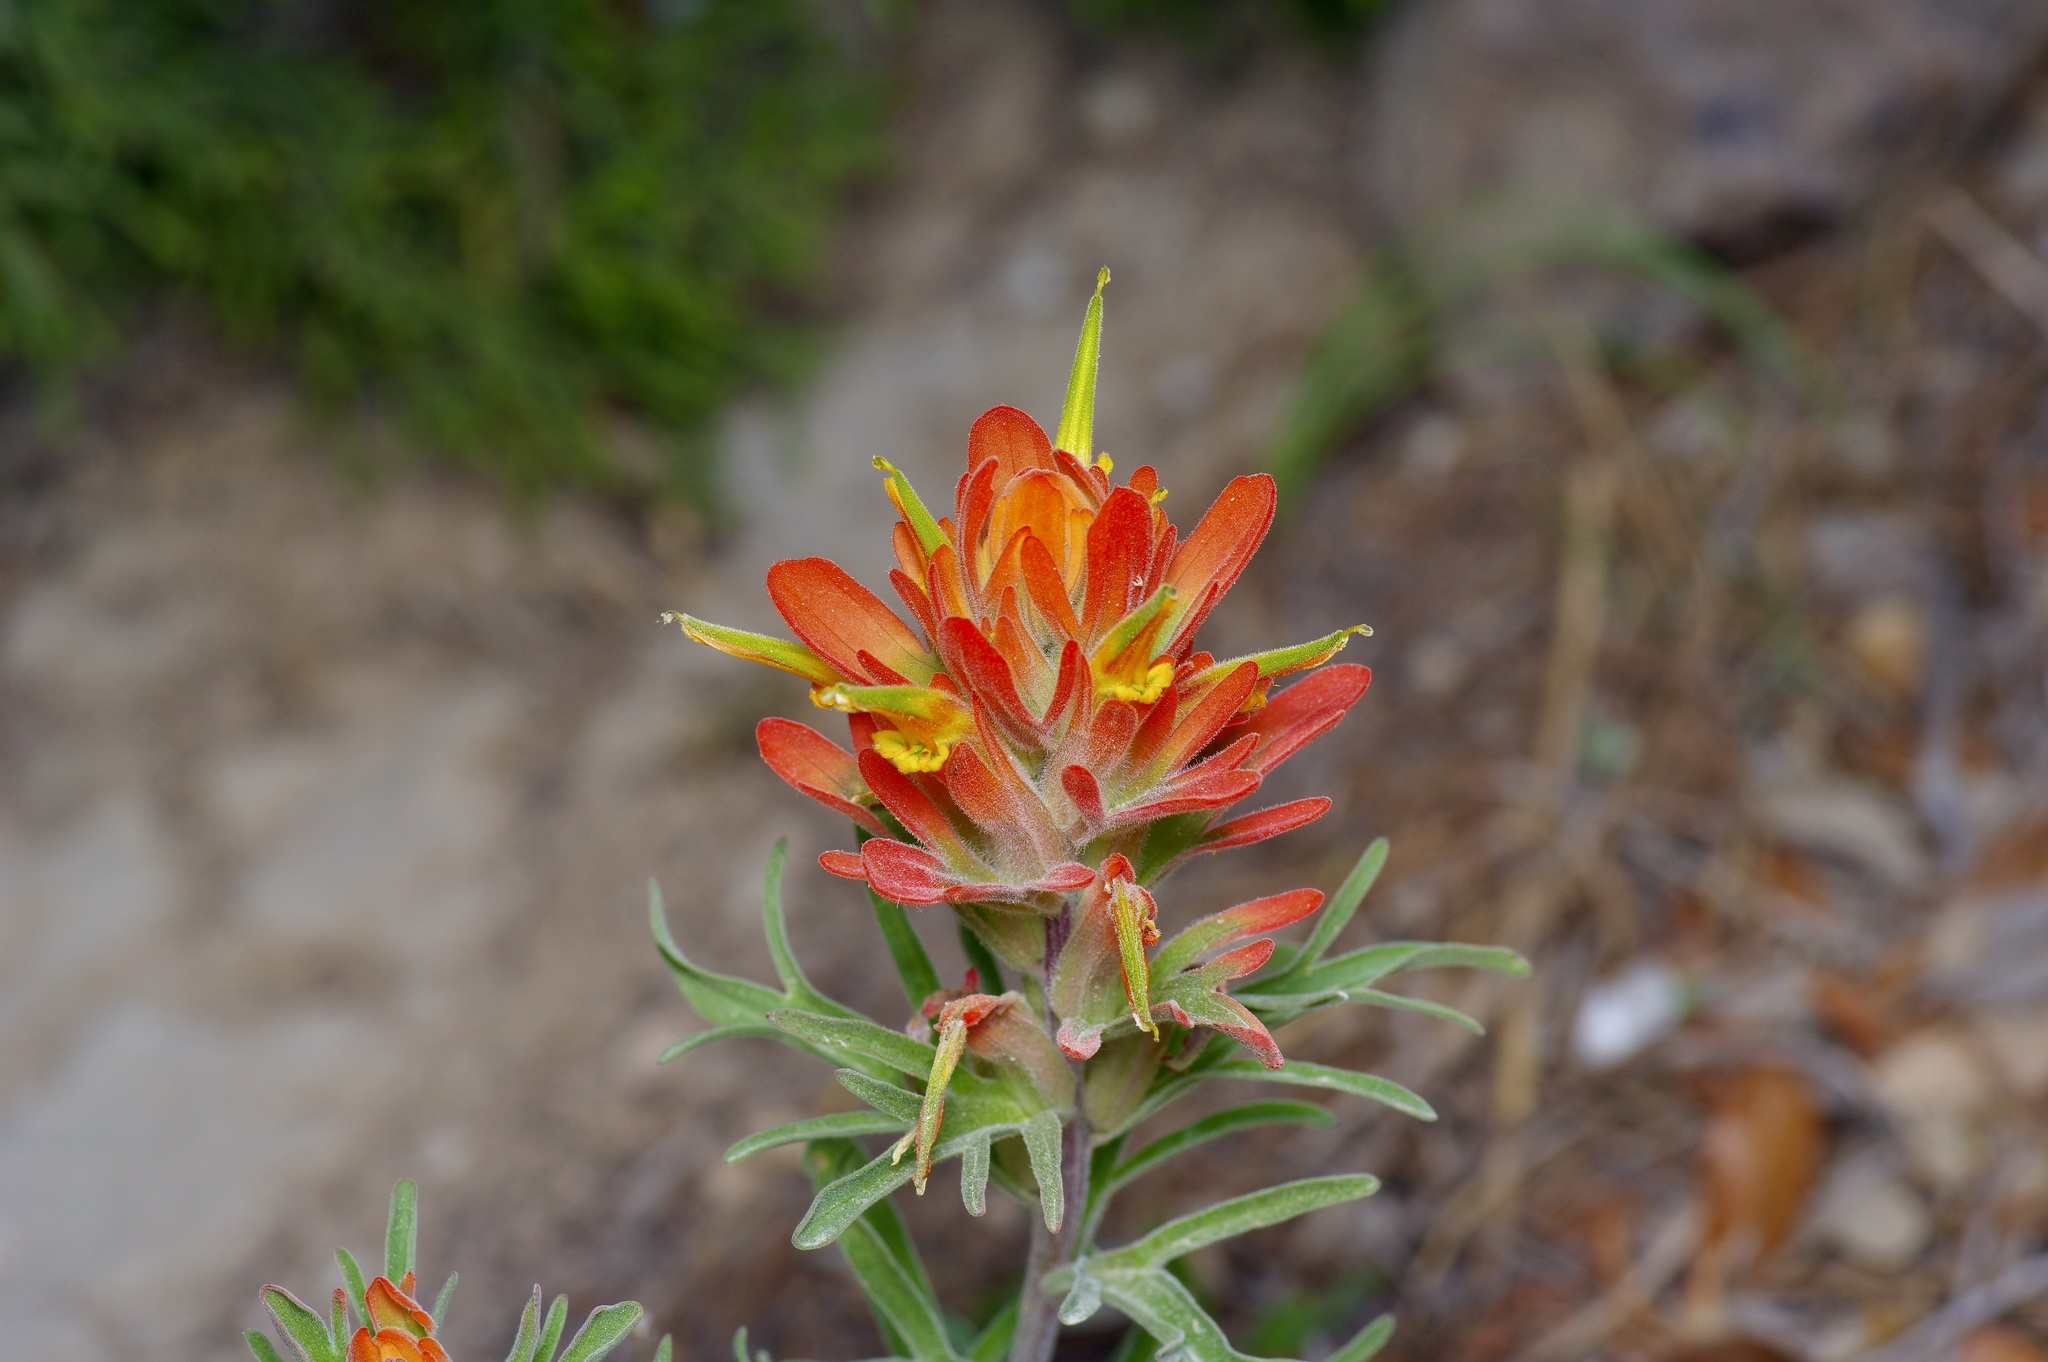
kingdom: Plantae
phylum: Tracheophyta
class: Magnoliopsida
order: Lamiales
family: Orobanchaceae
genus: Castilleja
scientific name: Castilleja lindheimeri
